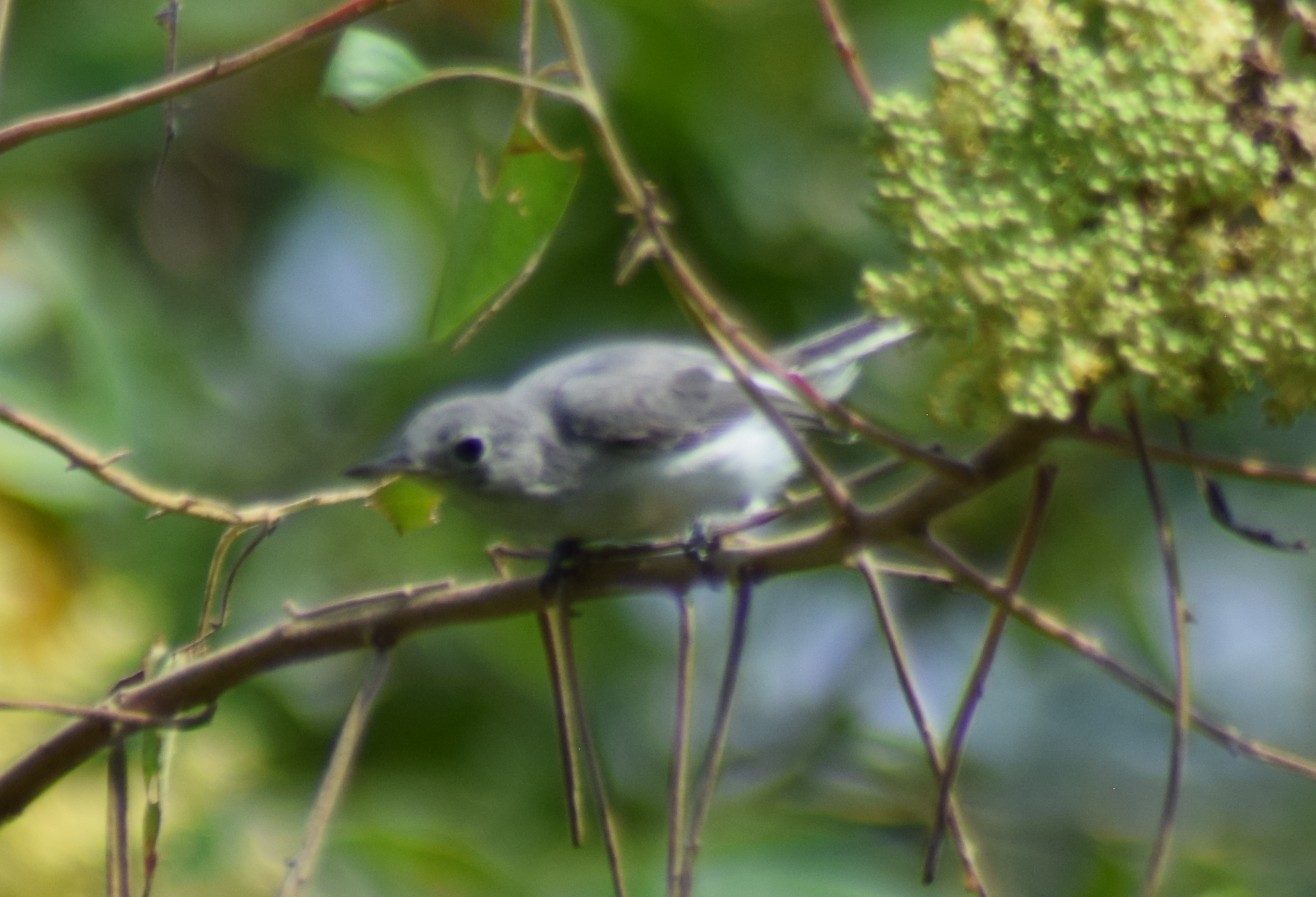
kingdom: Animalia
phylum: Chordata
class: Aves
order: Passeriformes
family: Polioptilidae
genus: Polioptila
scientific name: Polioptila caerulea
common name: Blue-gray gnatcatcher
